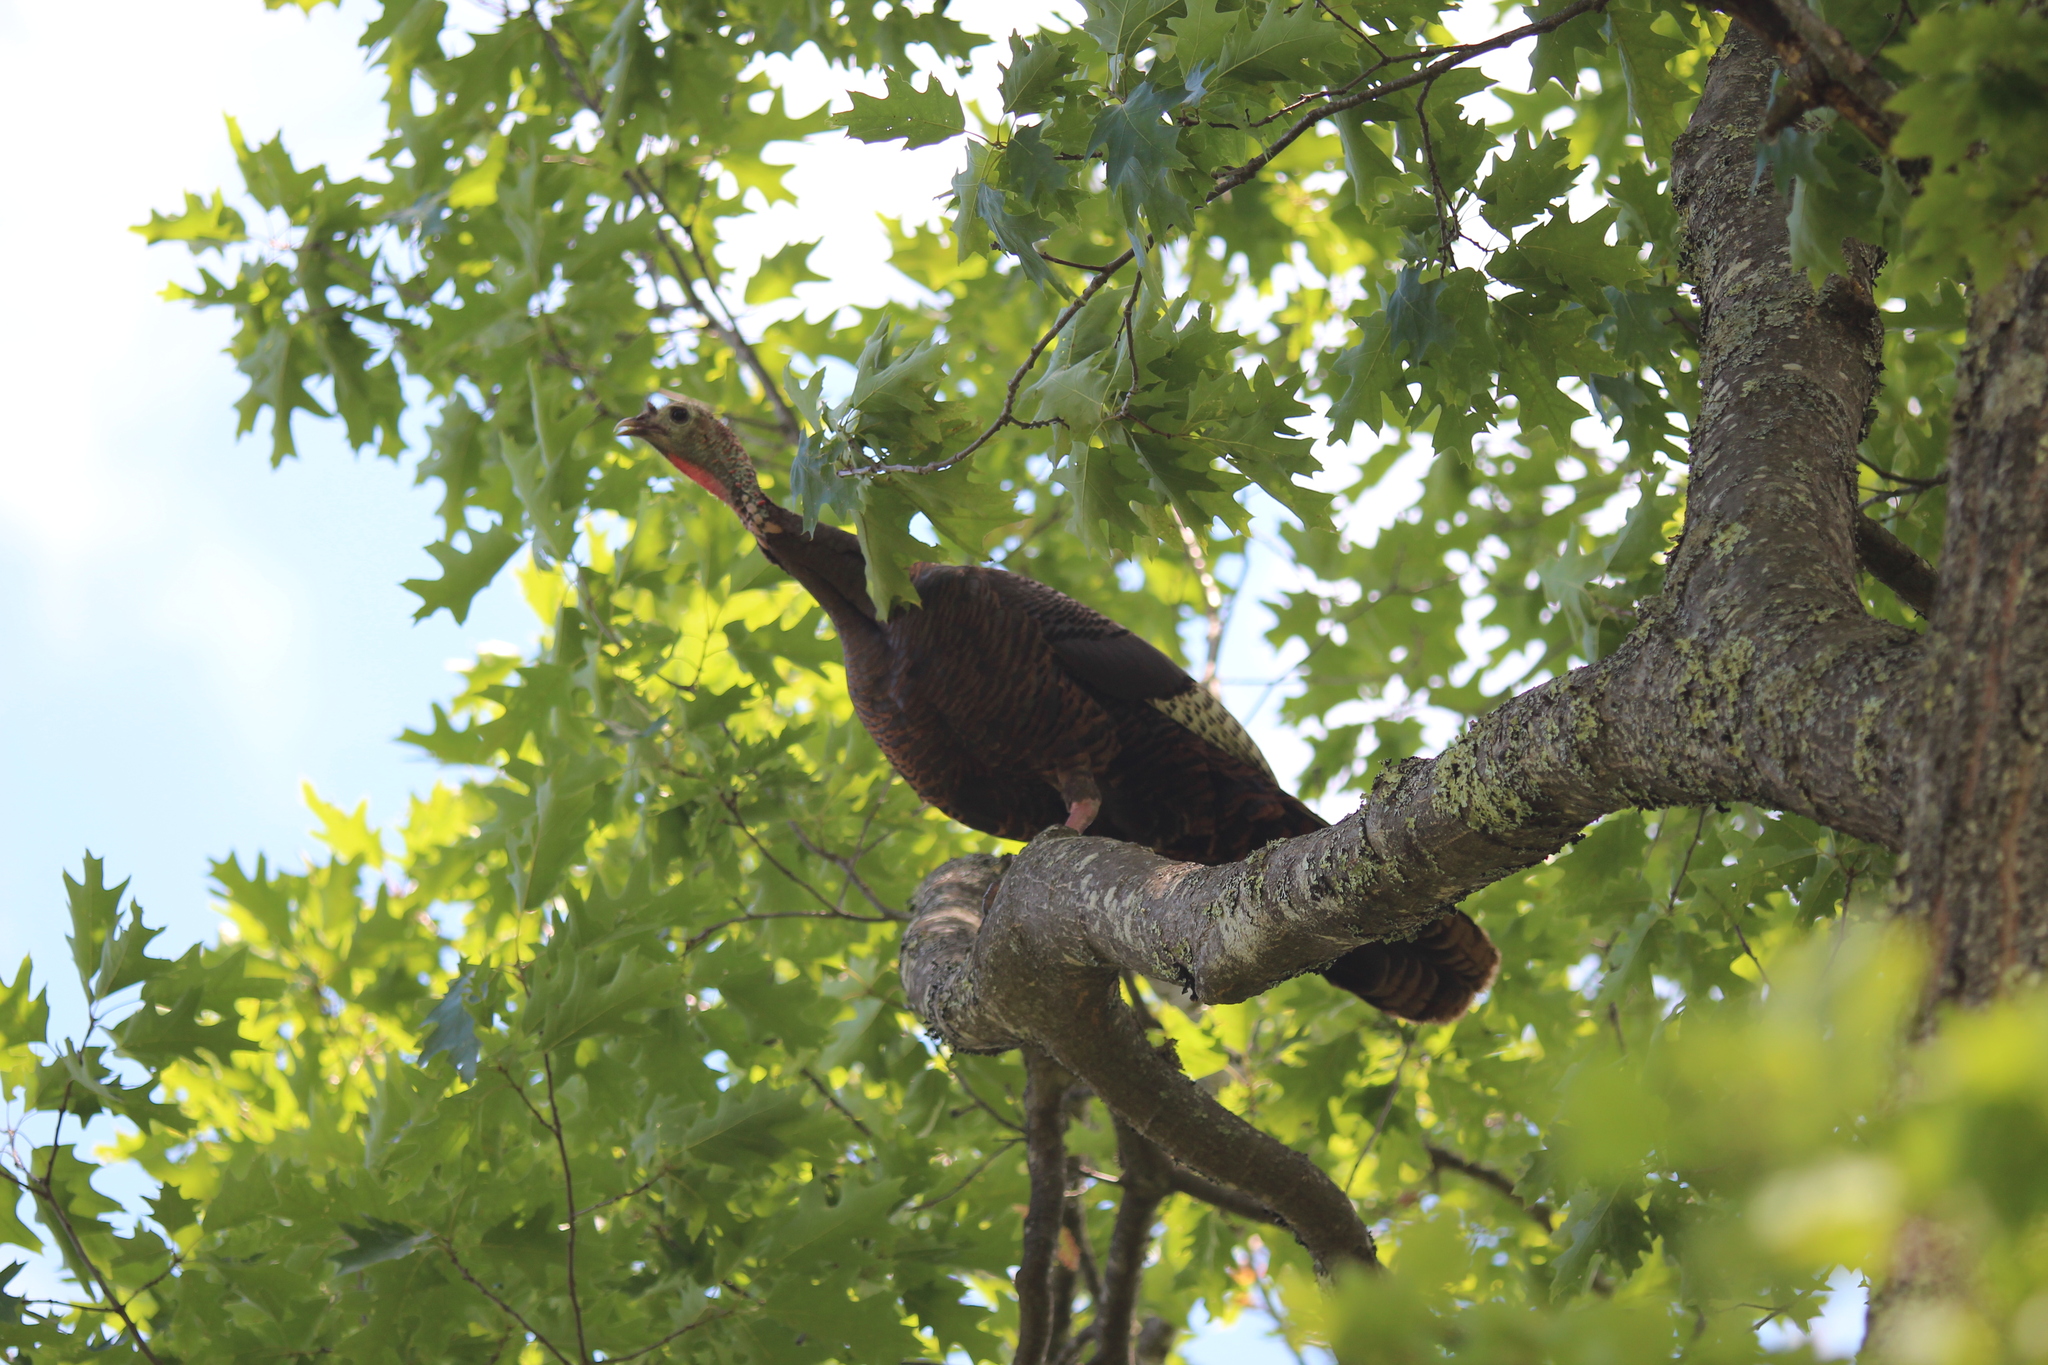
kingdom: Animalia
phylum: Chordata
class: Aves
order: Galliformes
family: Phasianidae
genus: Meleagris
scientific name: Meleagris gallopavo
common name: Wild turkey
